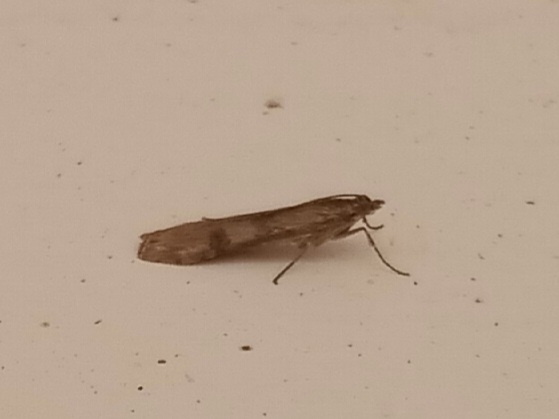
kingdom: Animalia
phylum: Arthropoda
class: Insecta
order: Lepidoptera
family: Crambidae
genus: Nomophila
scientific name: Nomophila nearctica
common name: American rush veneer
